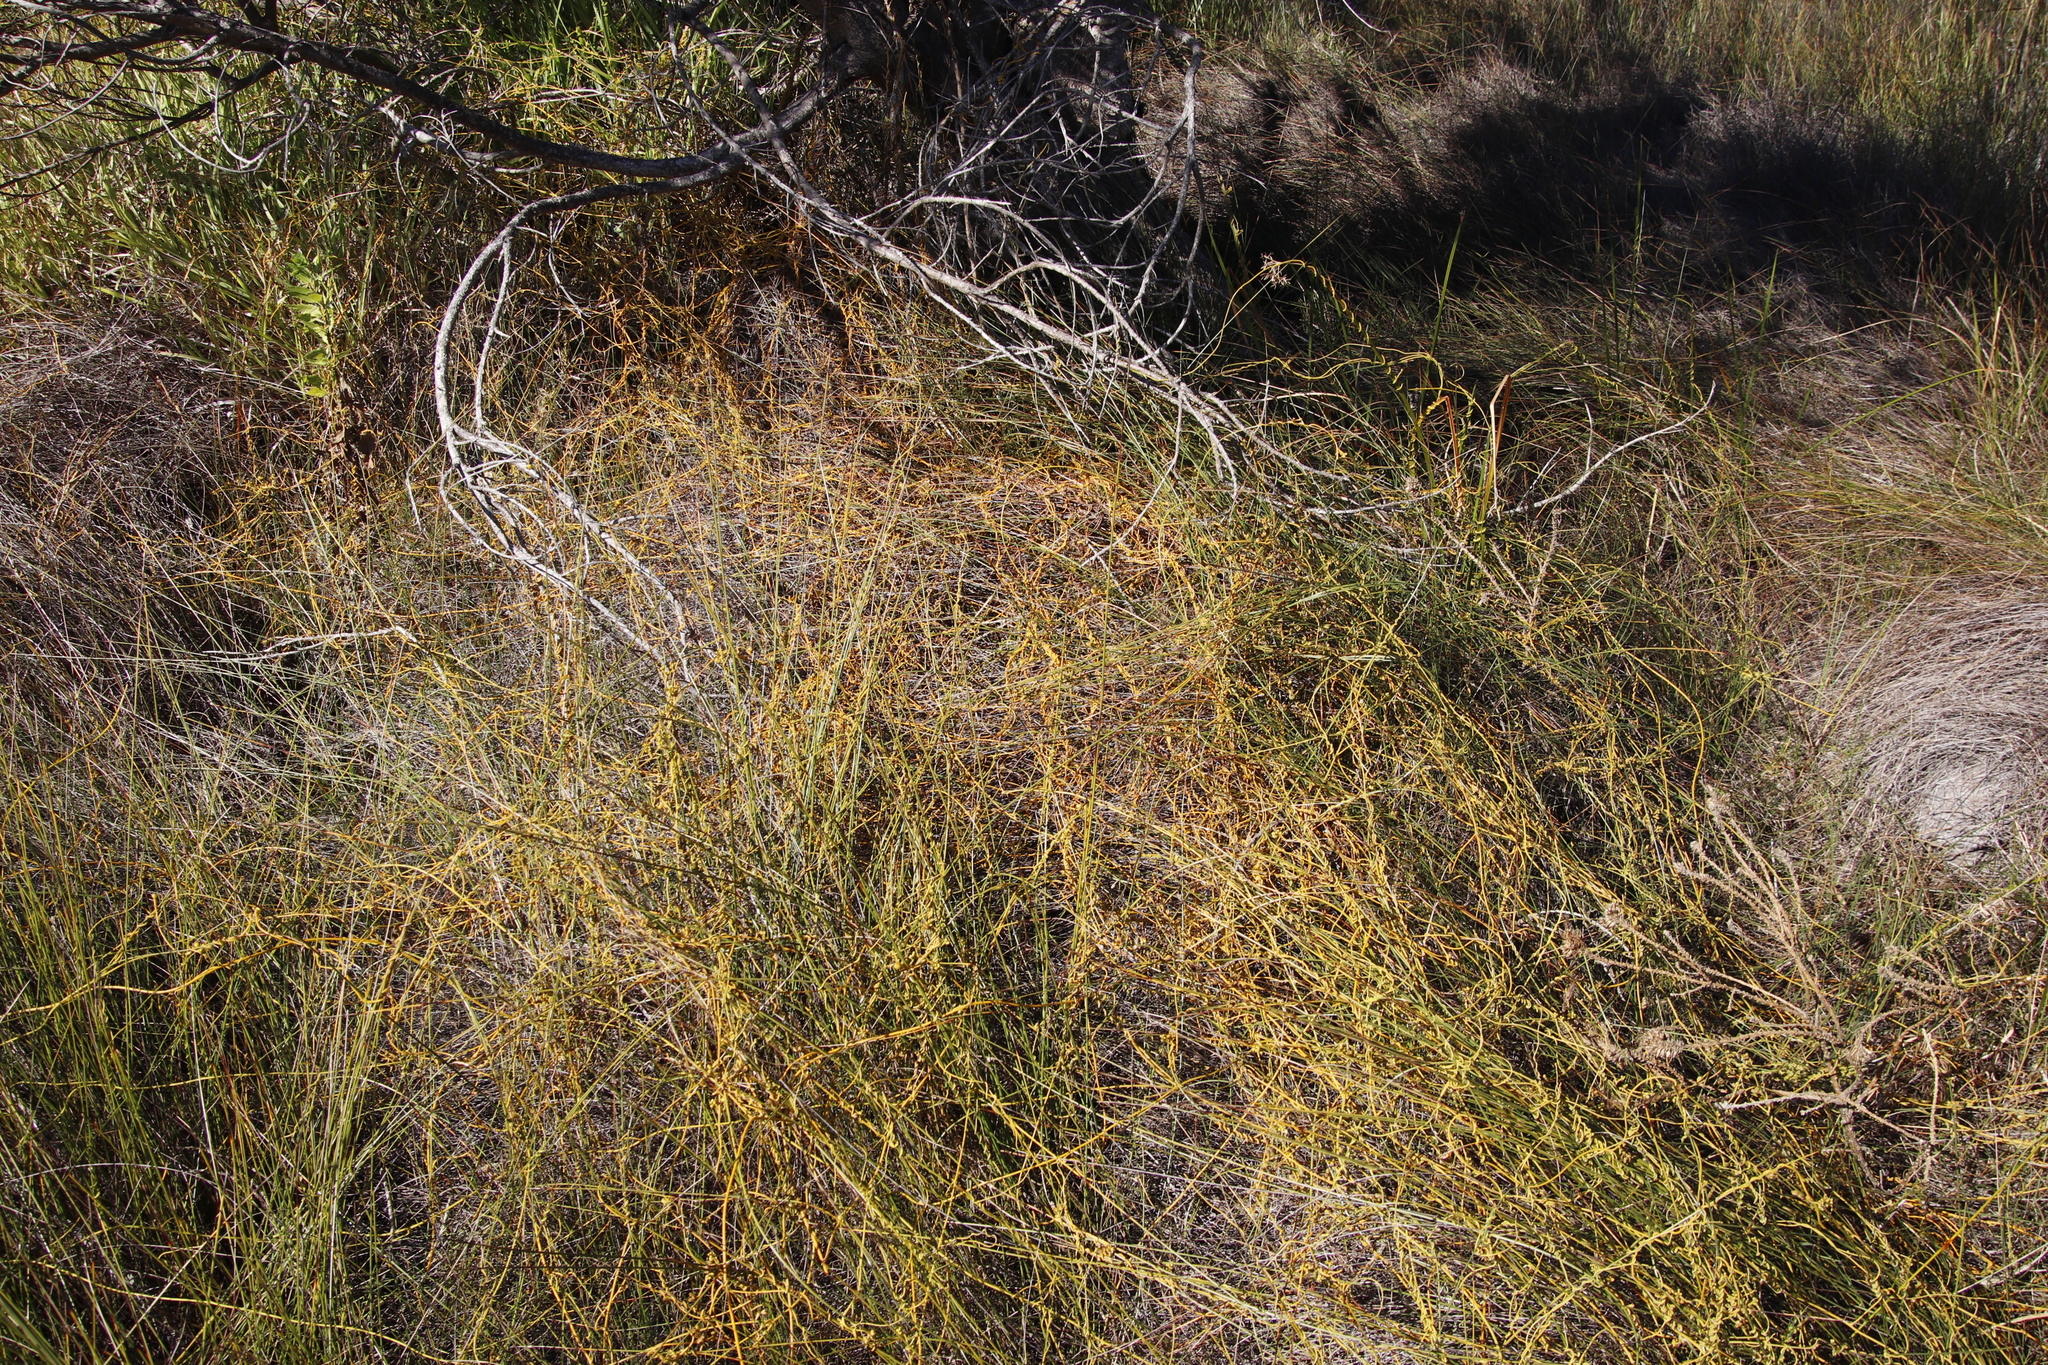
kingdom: Plantae
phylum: Tracheophyta
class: Magnoliopsida
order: Laurales
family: Lauraceae
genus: Cassytha
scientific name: Cassytha ciliolata
